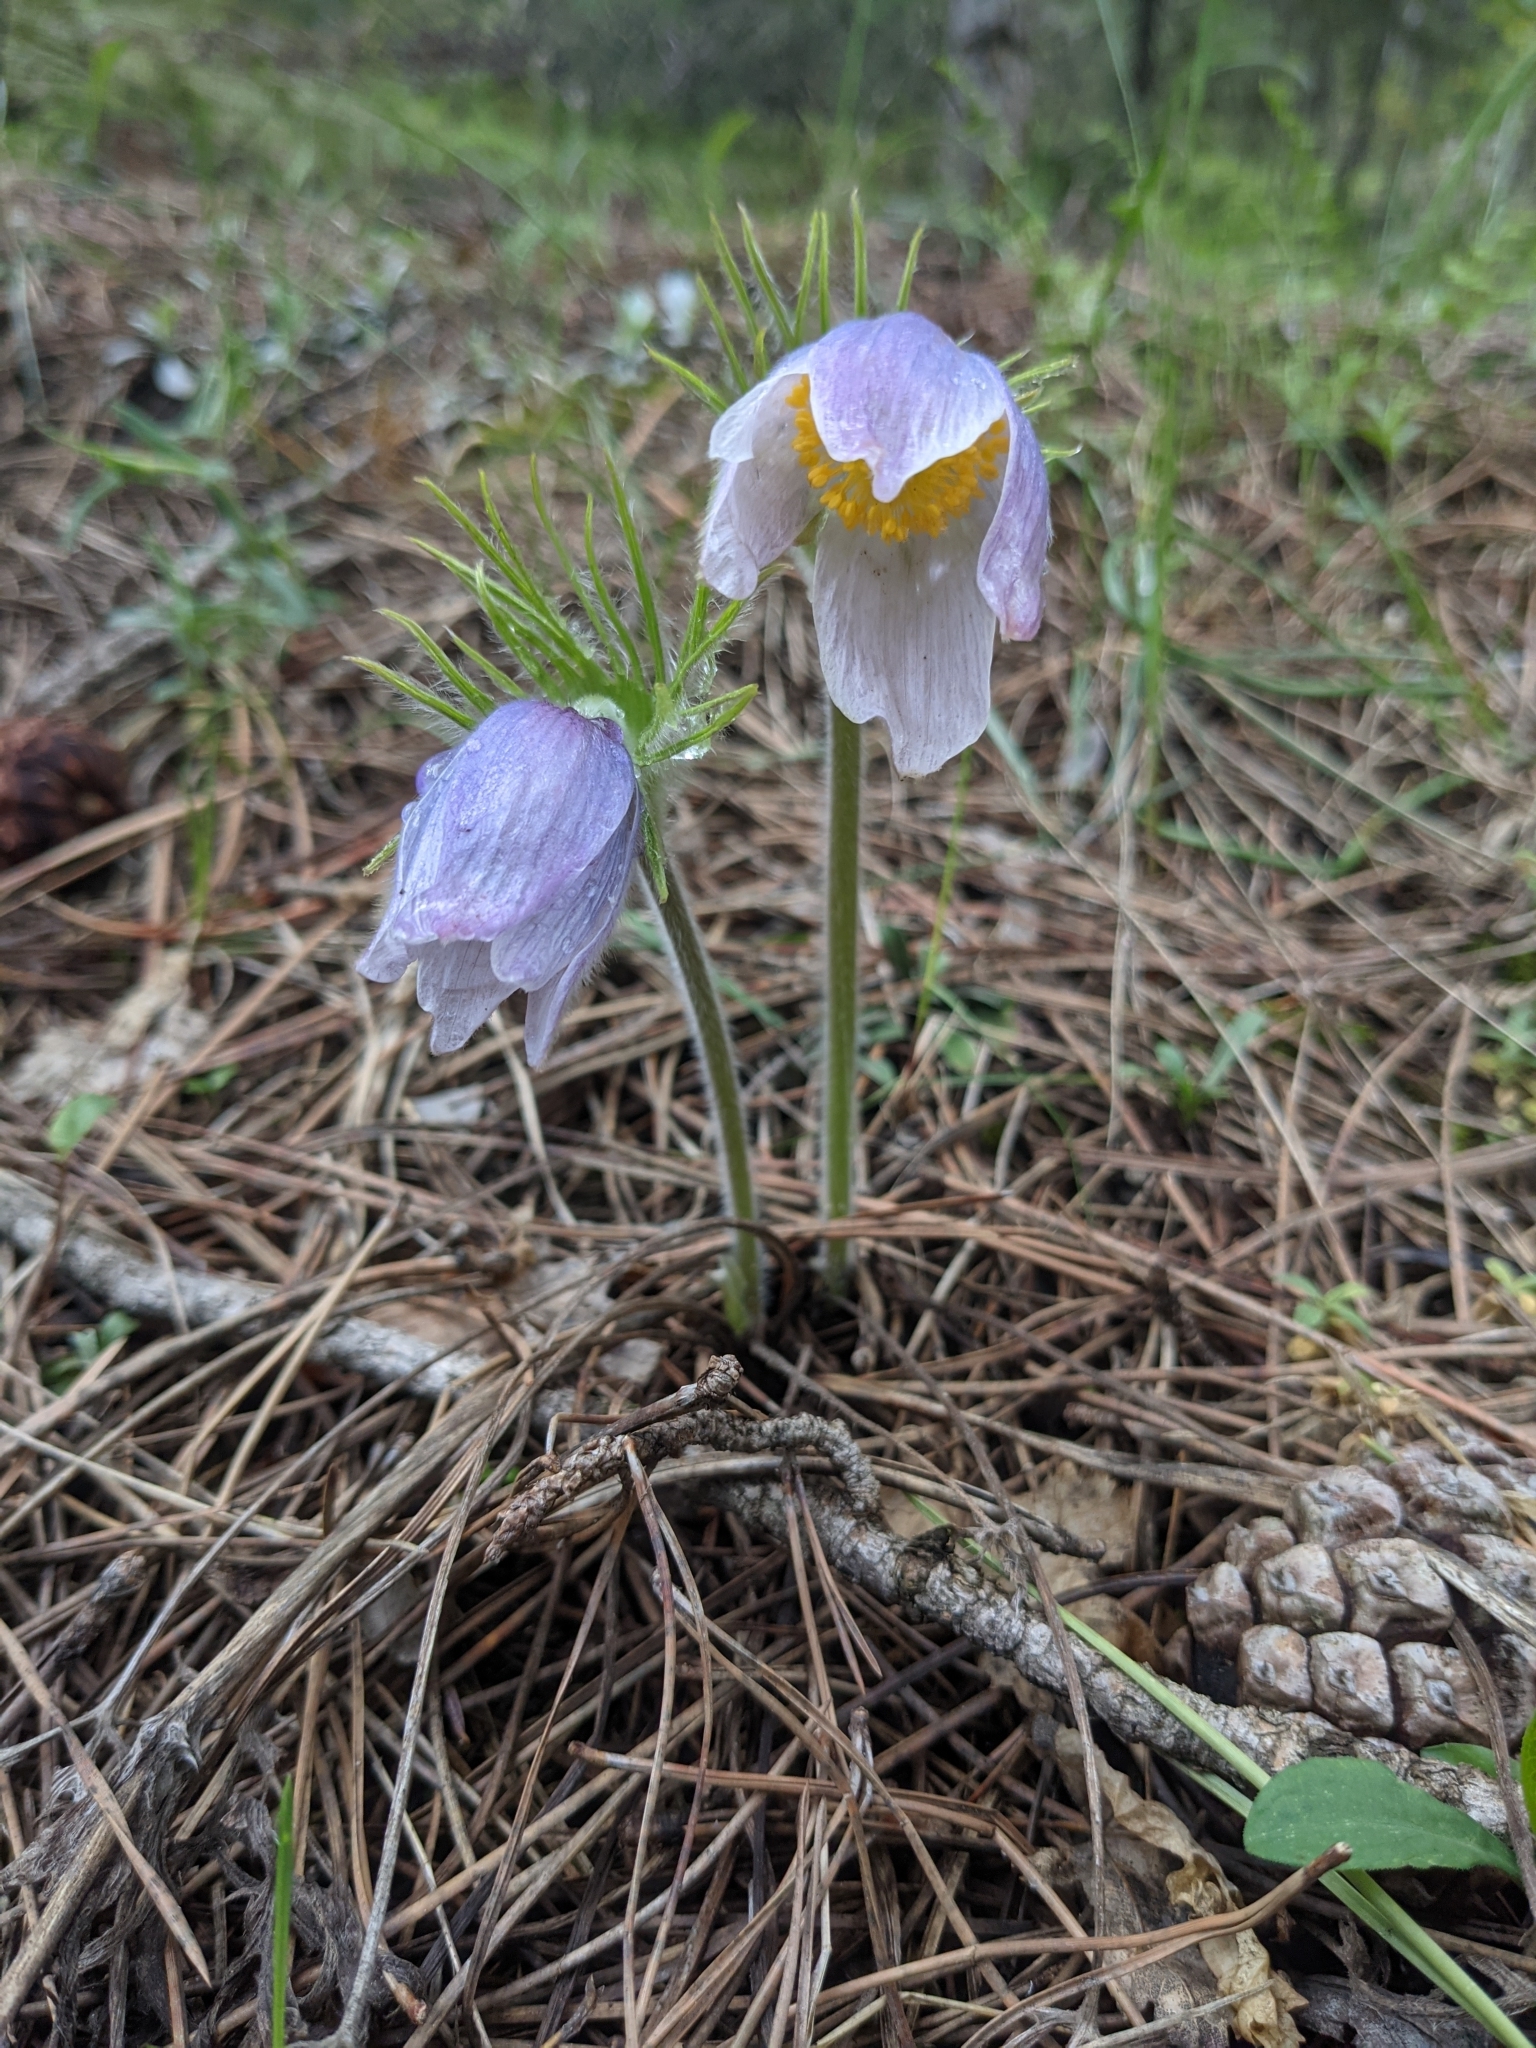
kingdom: Plantae
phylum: Tracheophyta
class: Magnoliopsida
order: Ranunculales
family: Ranunculaceae
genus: Pulsatilla
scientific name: Pulsatilla nuttalliana
